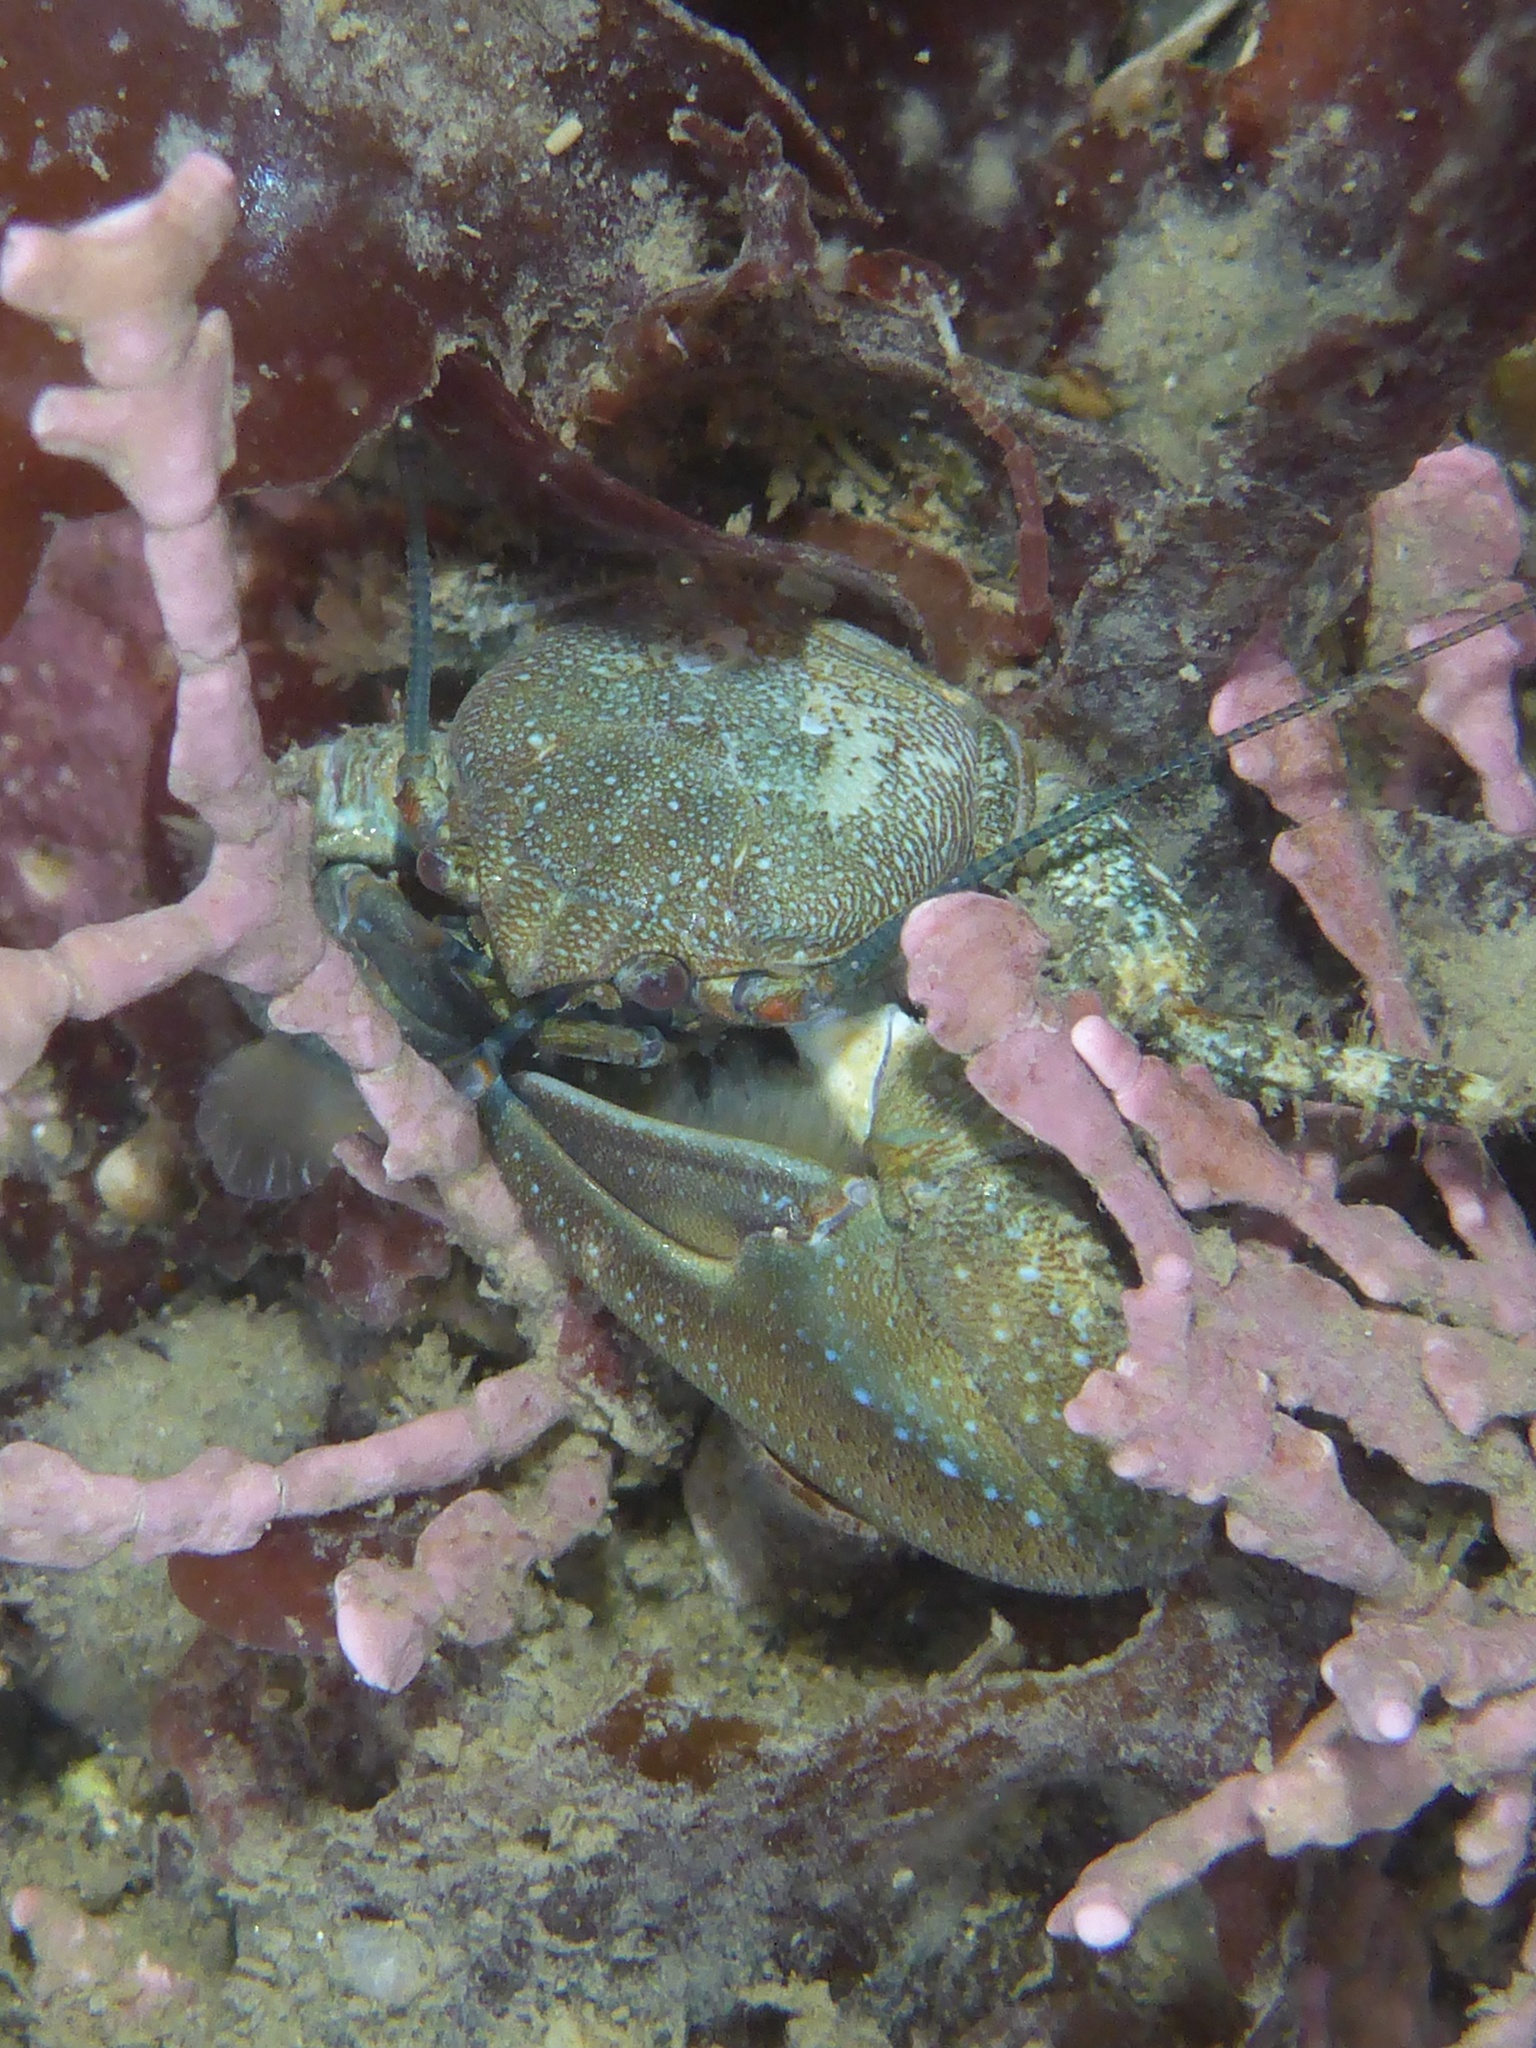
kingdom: Animalia
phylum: Arthropoda
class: Malacostraca
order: Decapoda
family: Porcellanidae
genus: Petrolisthes
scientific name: Petrolisthes manimaculis
